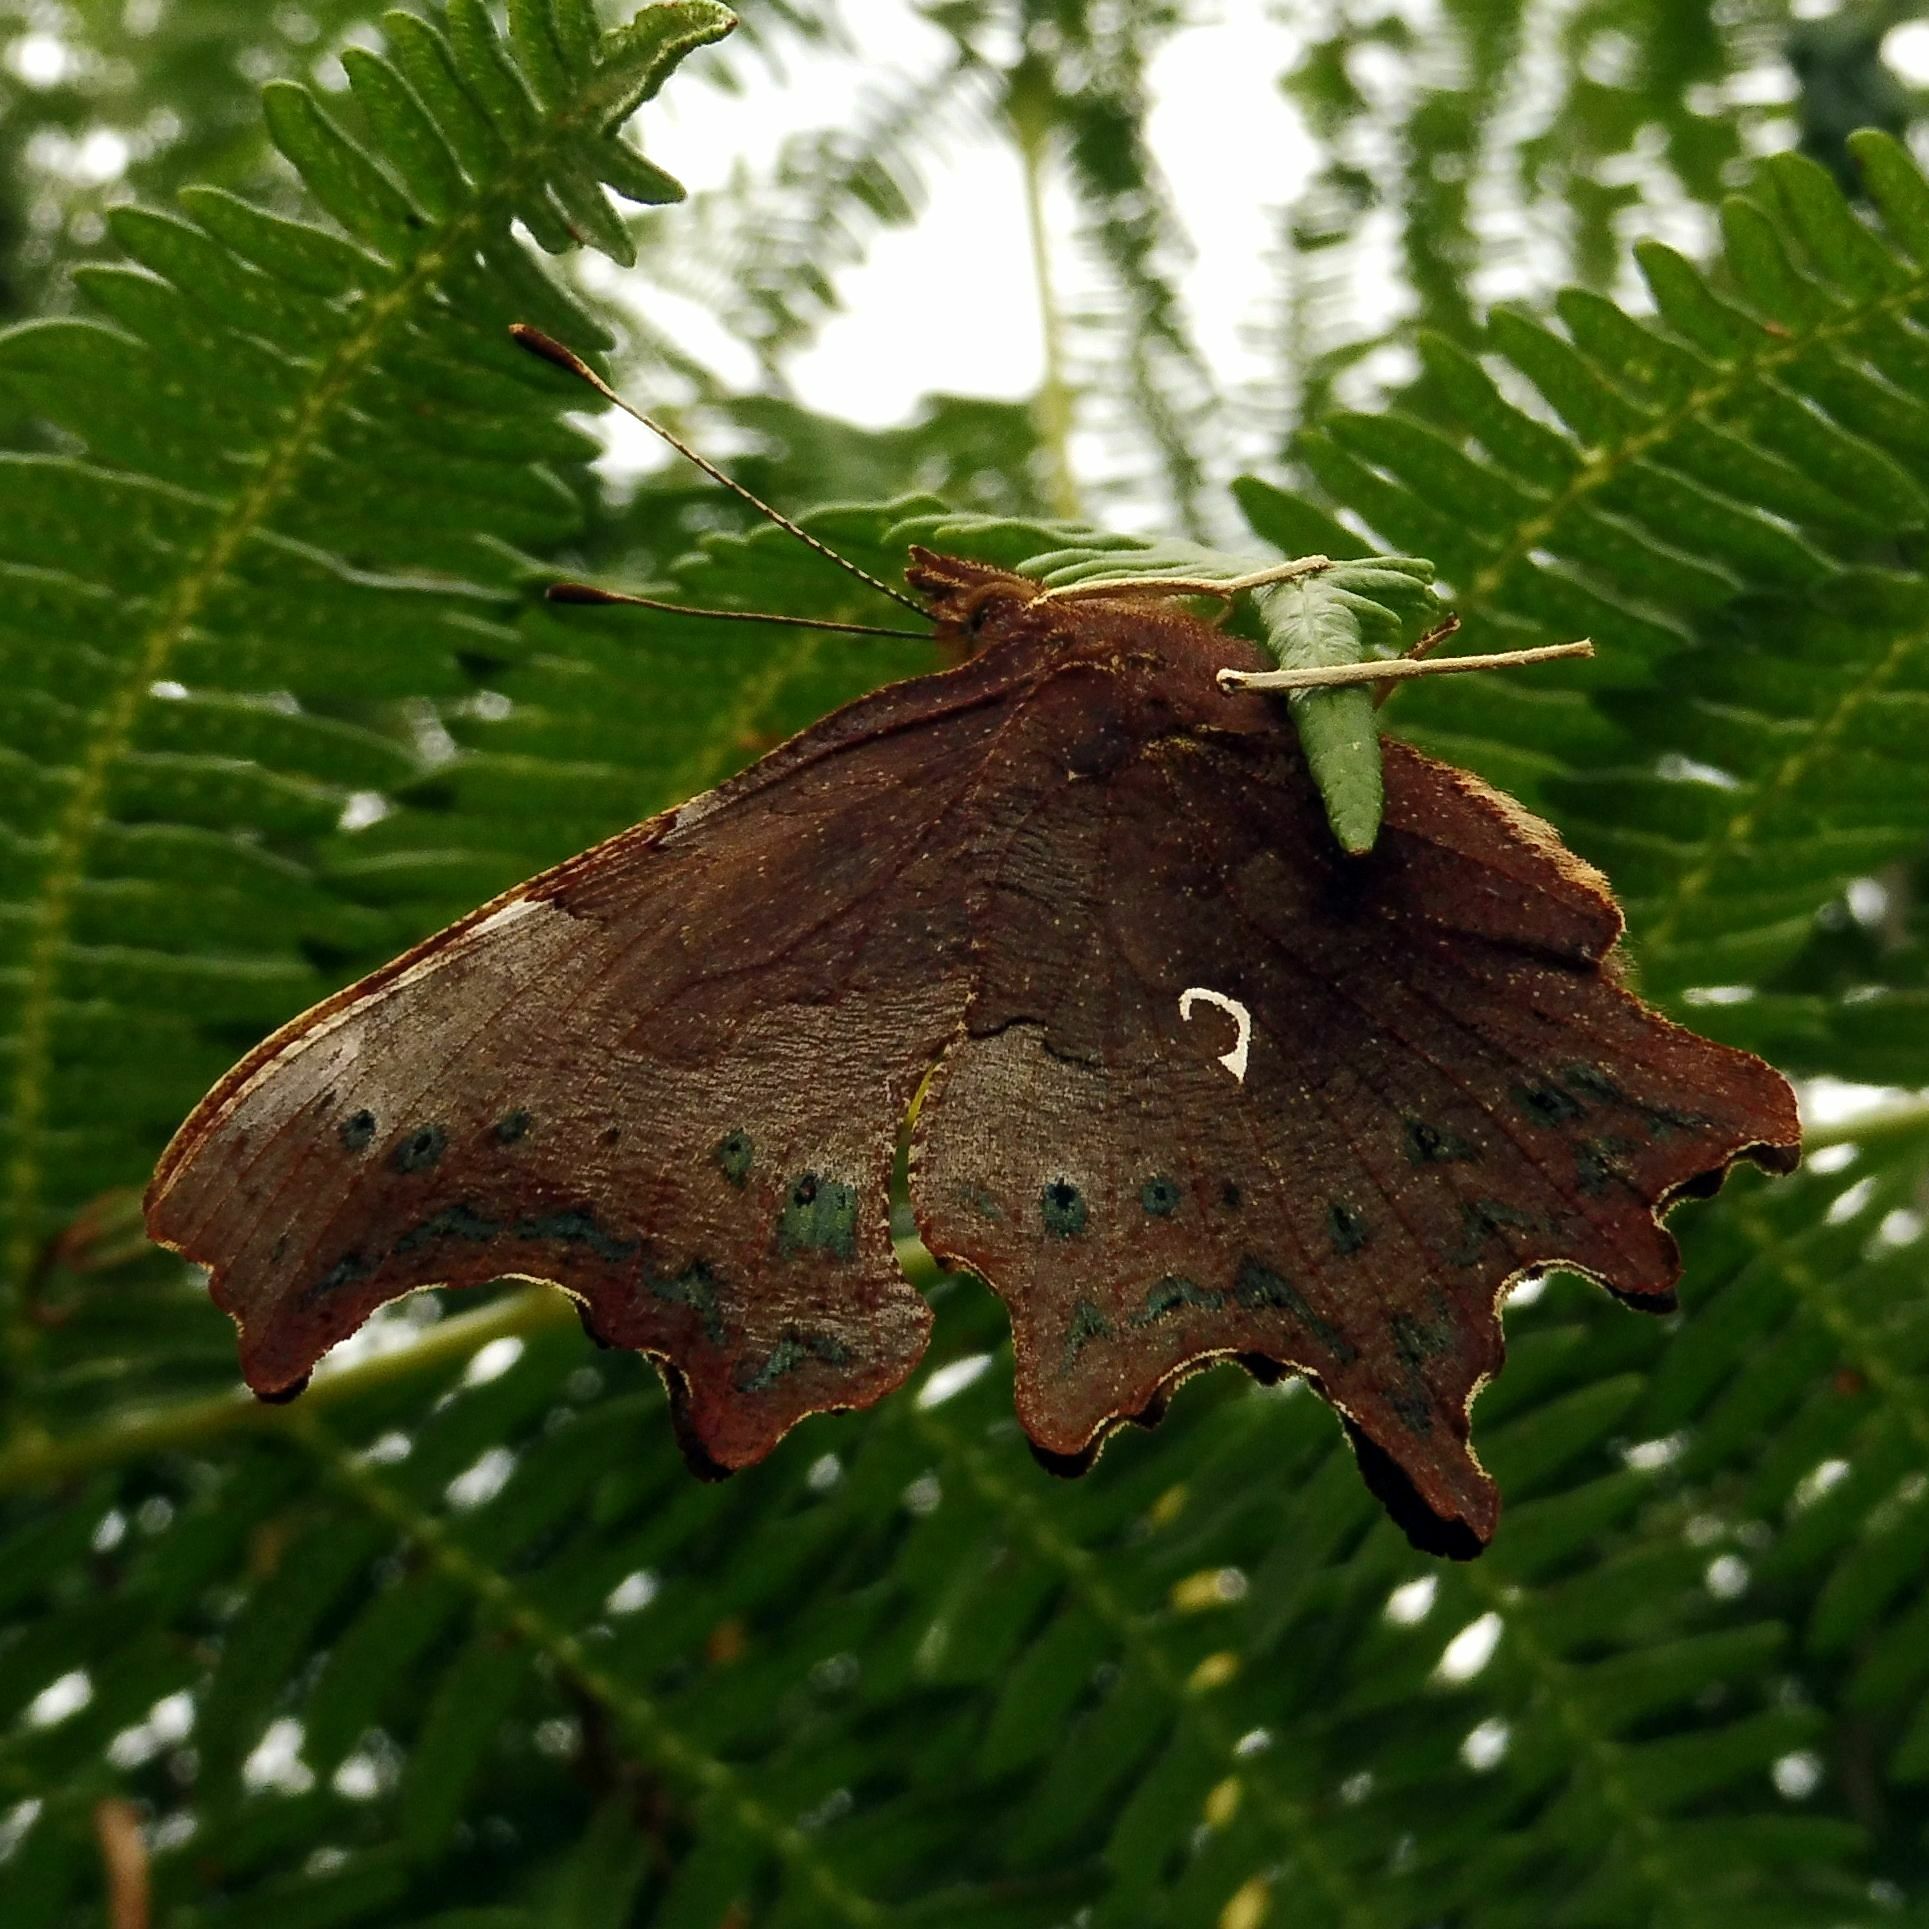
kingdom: Animalia
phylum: Arthropoda
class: Insecta
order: Lepidoptera
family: Nymphalidae
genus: Polygonia
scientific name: Polygonia c-album
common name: Comma
